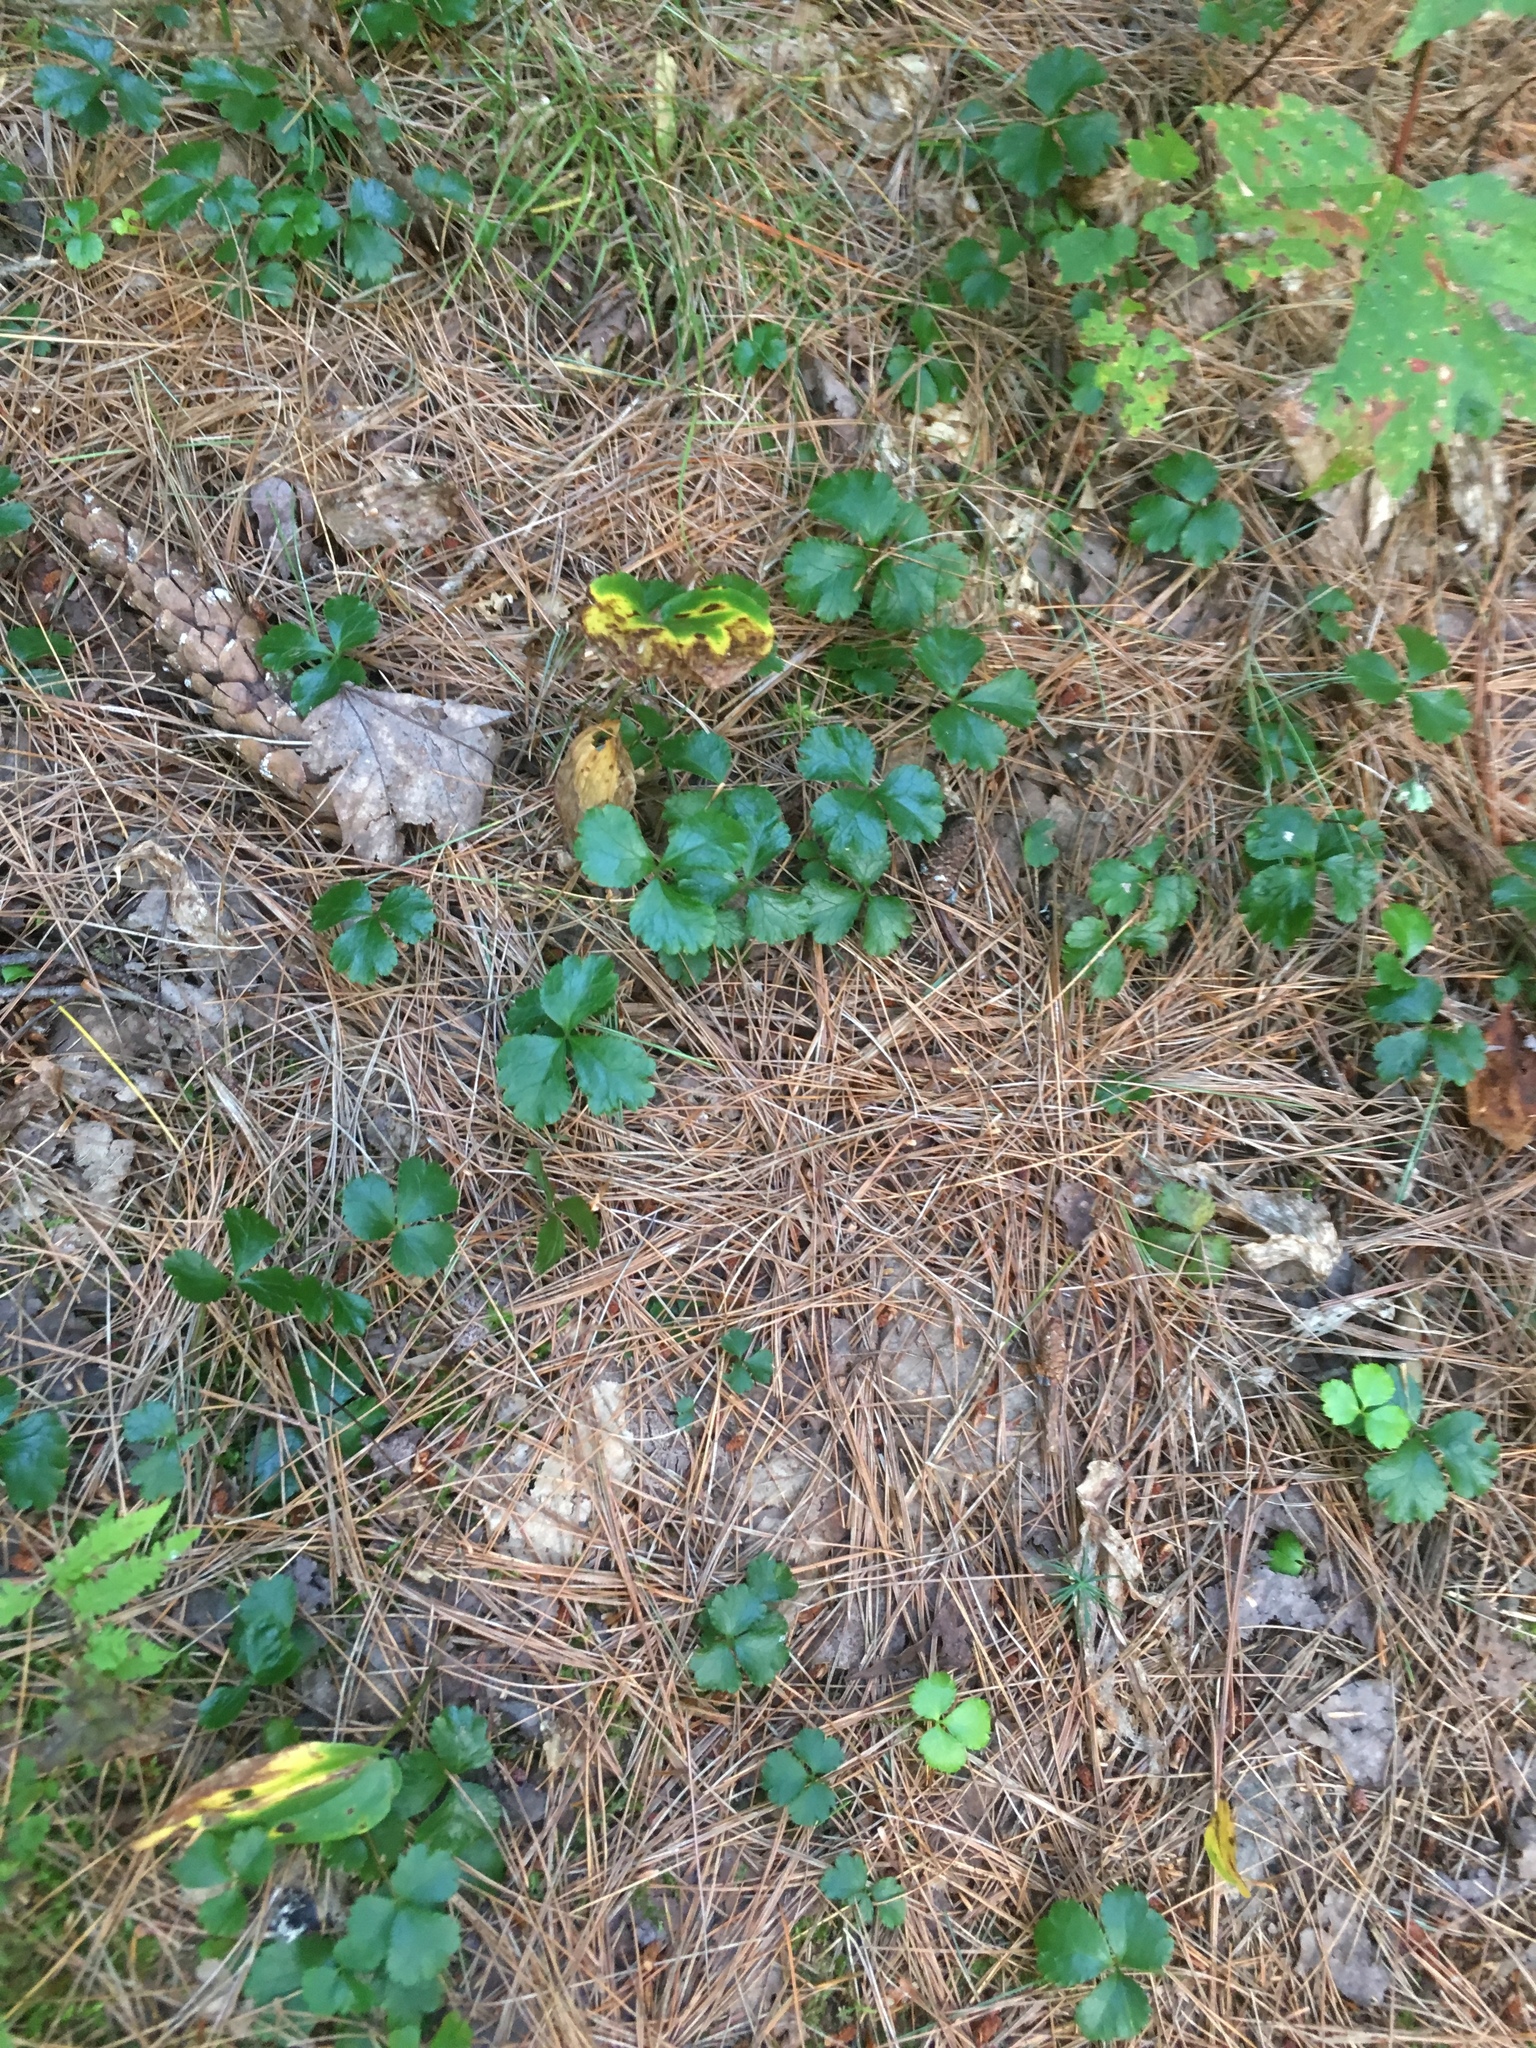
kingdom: Plantae
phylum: Tracheophyta
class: Magnoliopsida
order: Ranunculales
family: Ranunculaceae
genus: Coptis
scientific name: Coptis trifolia
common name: Canker-root
